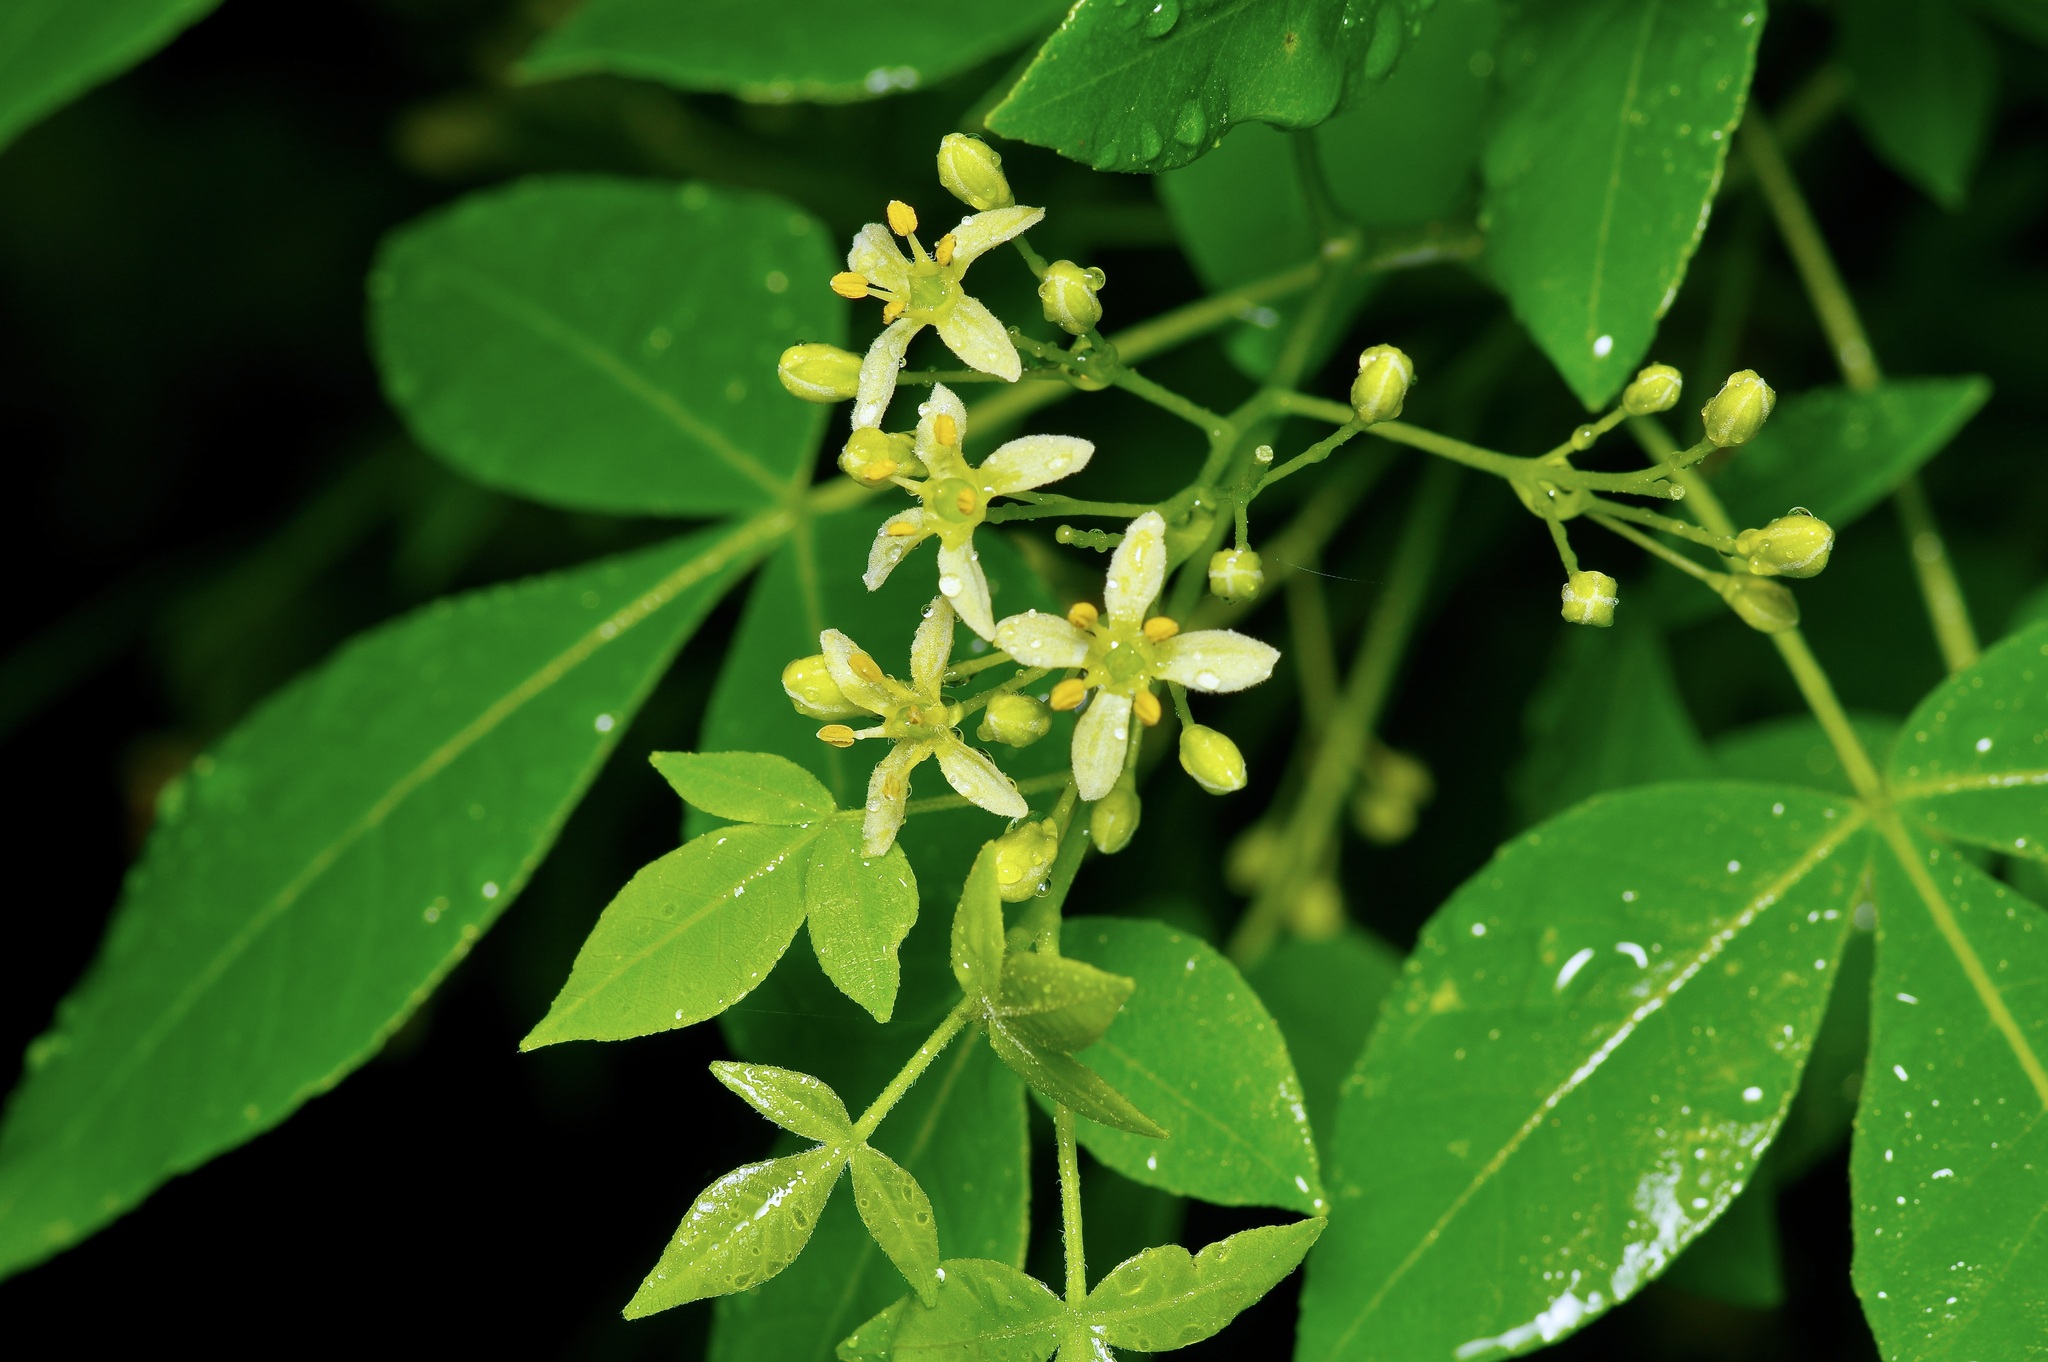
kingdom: Plantae
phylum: Tracheophyta
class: Magnoliopsida
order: Sapindales
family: Rutaceae
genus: Ptelea
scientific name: Ptelea trifoliata
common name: Common hop-tree
